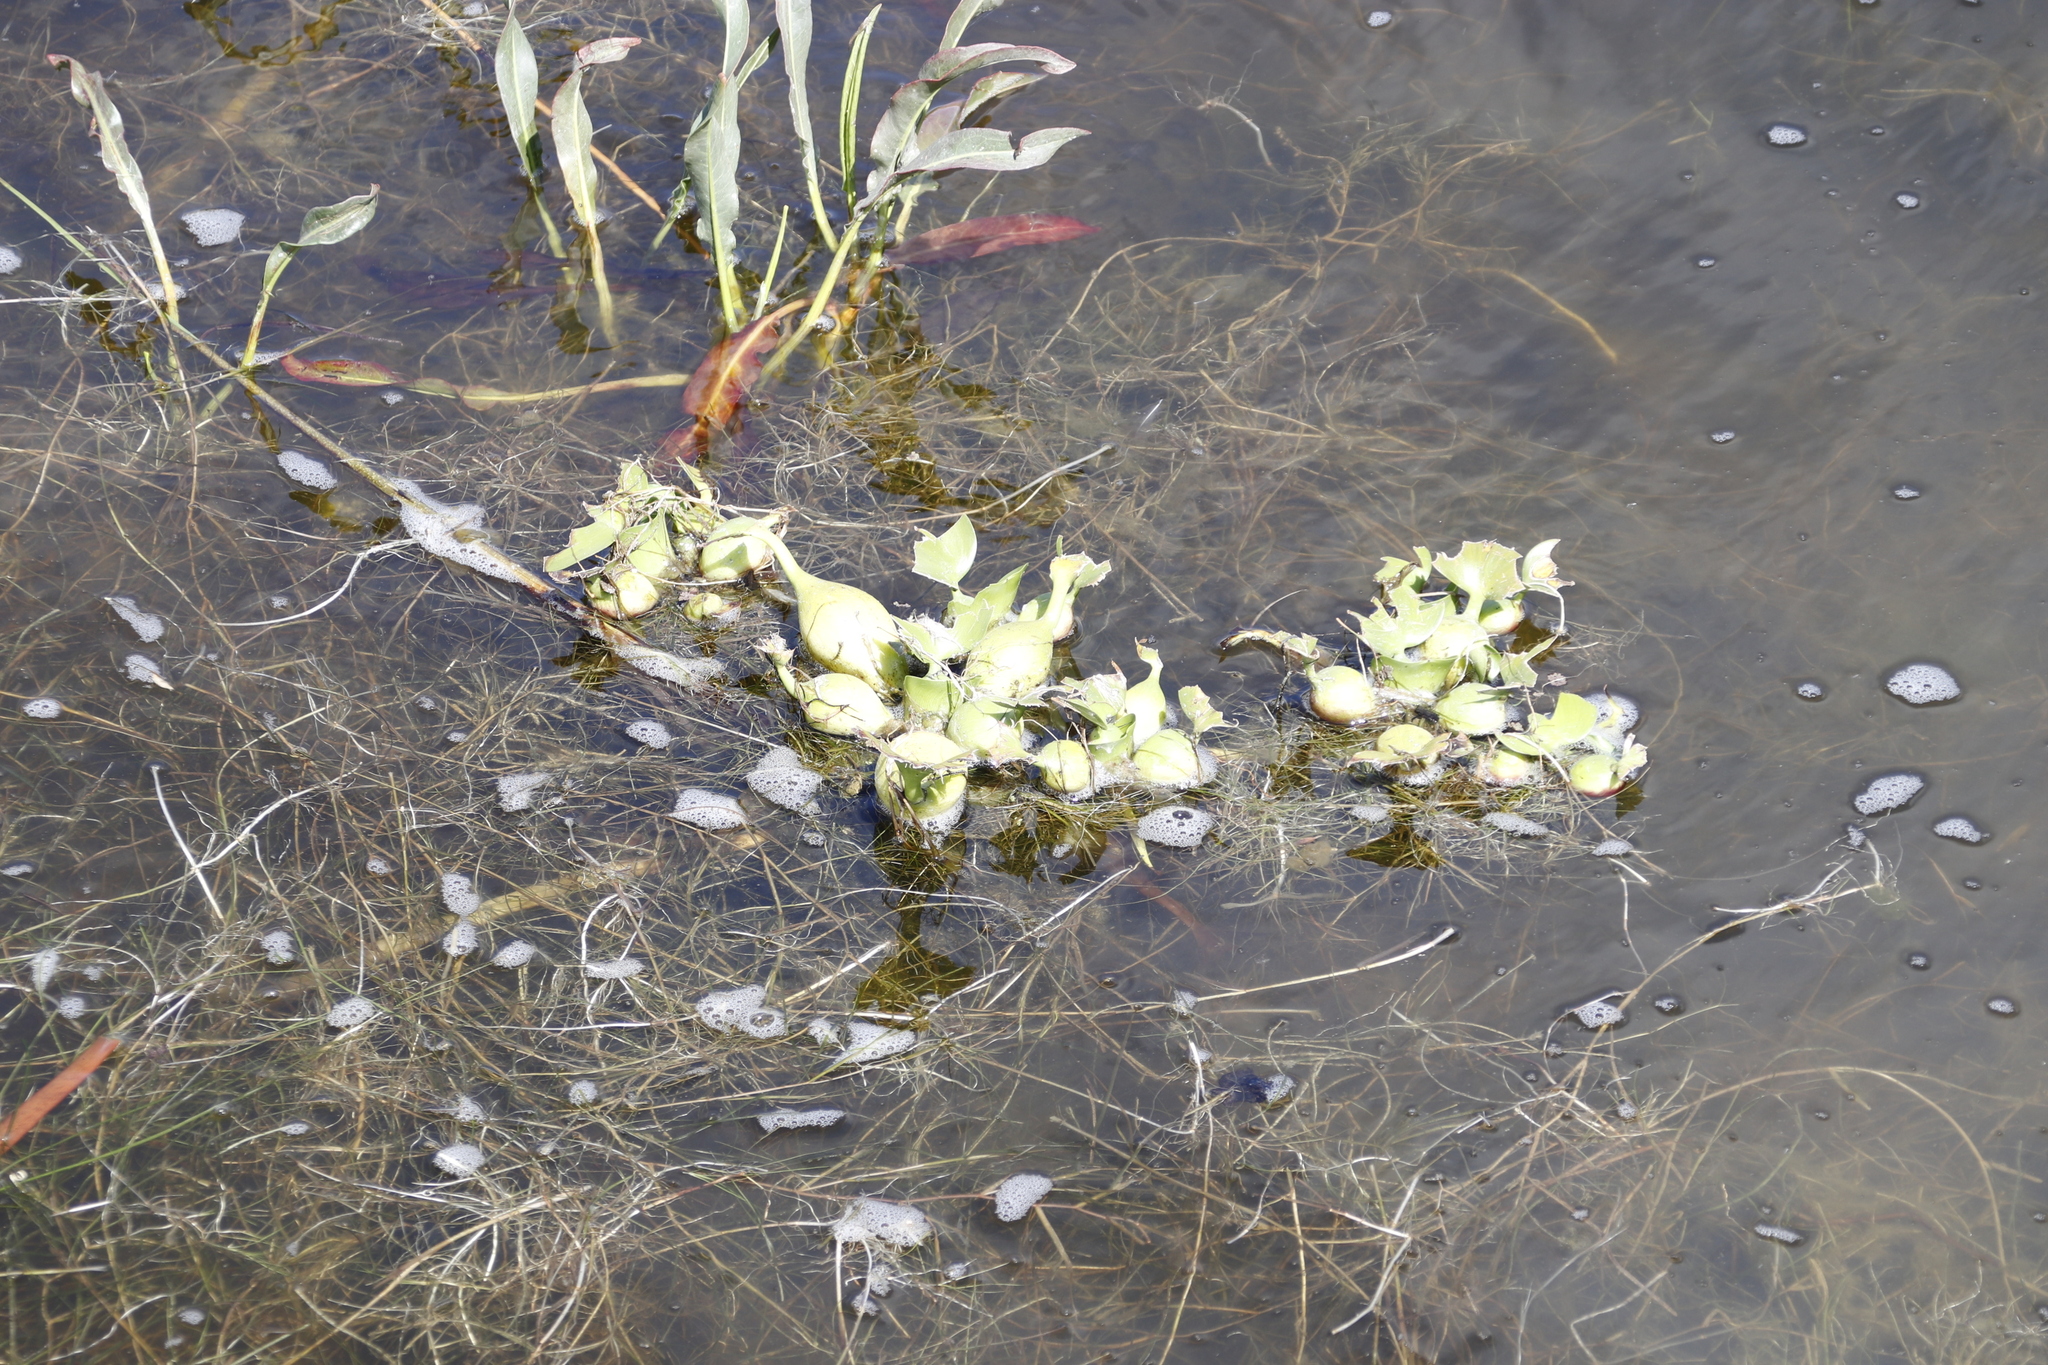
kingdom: Plantae
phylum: Tracheophyta
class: Liliopsida
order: Commelinales
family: Pontederiaceae
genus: Pontederia
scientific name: Pontederia crassipes
